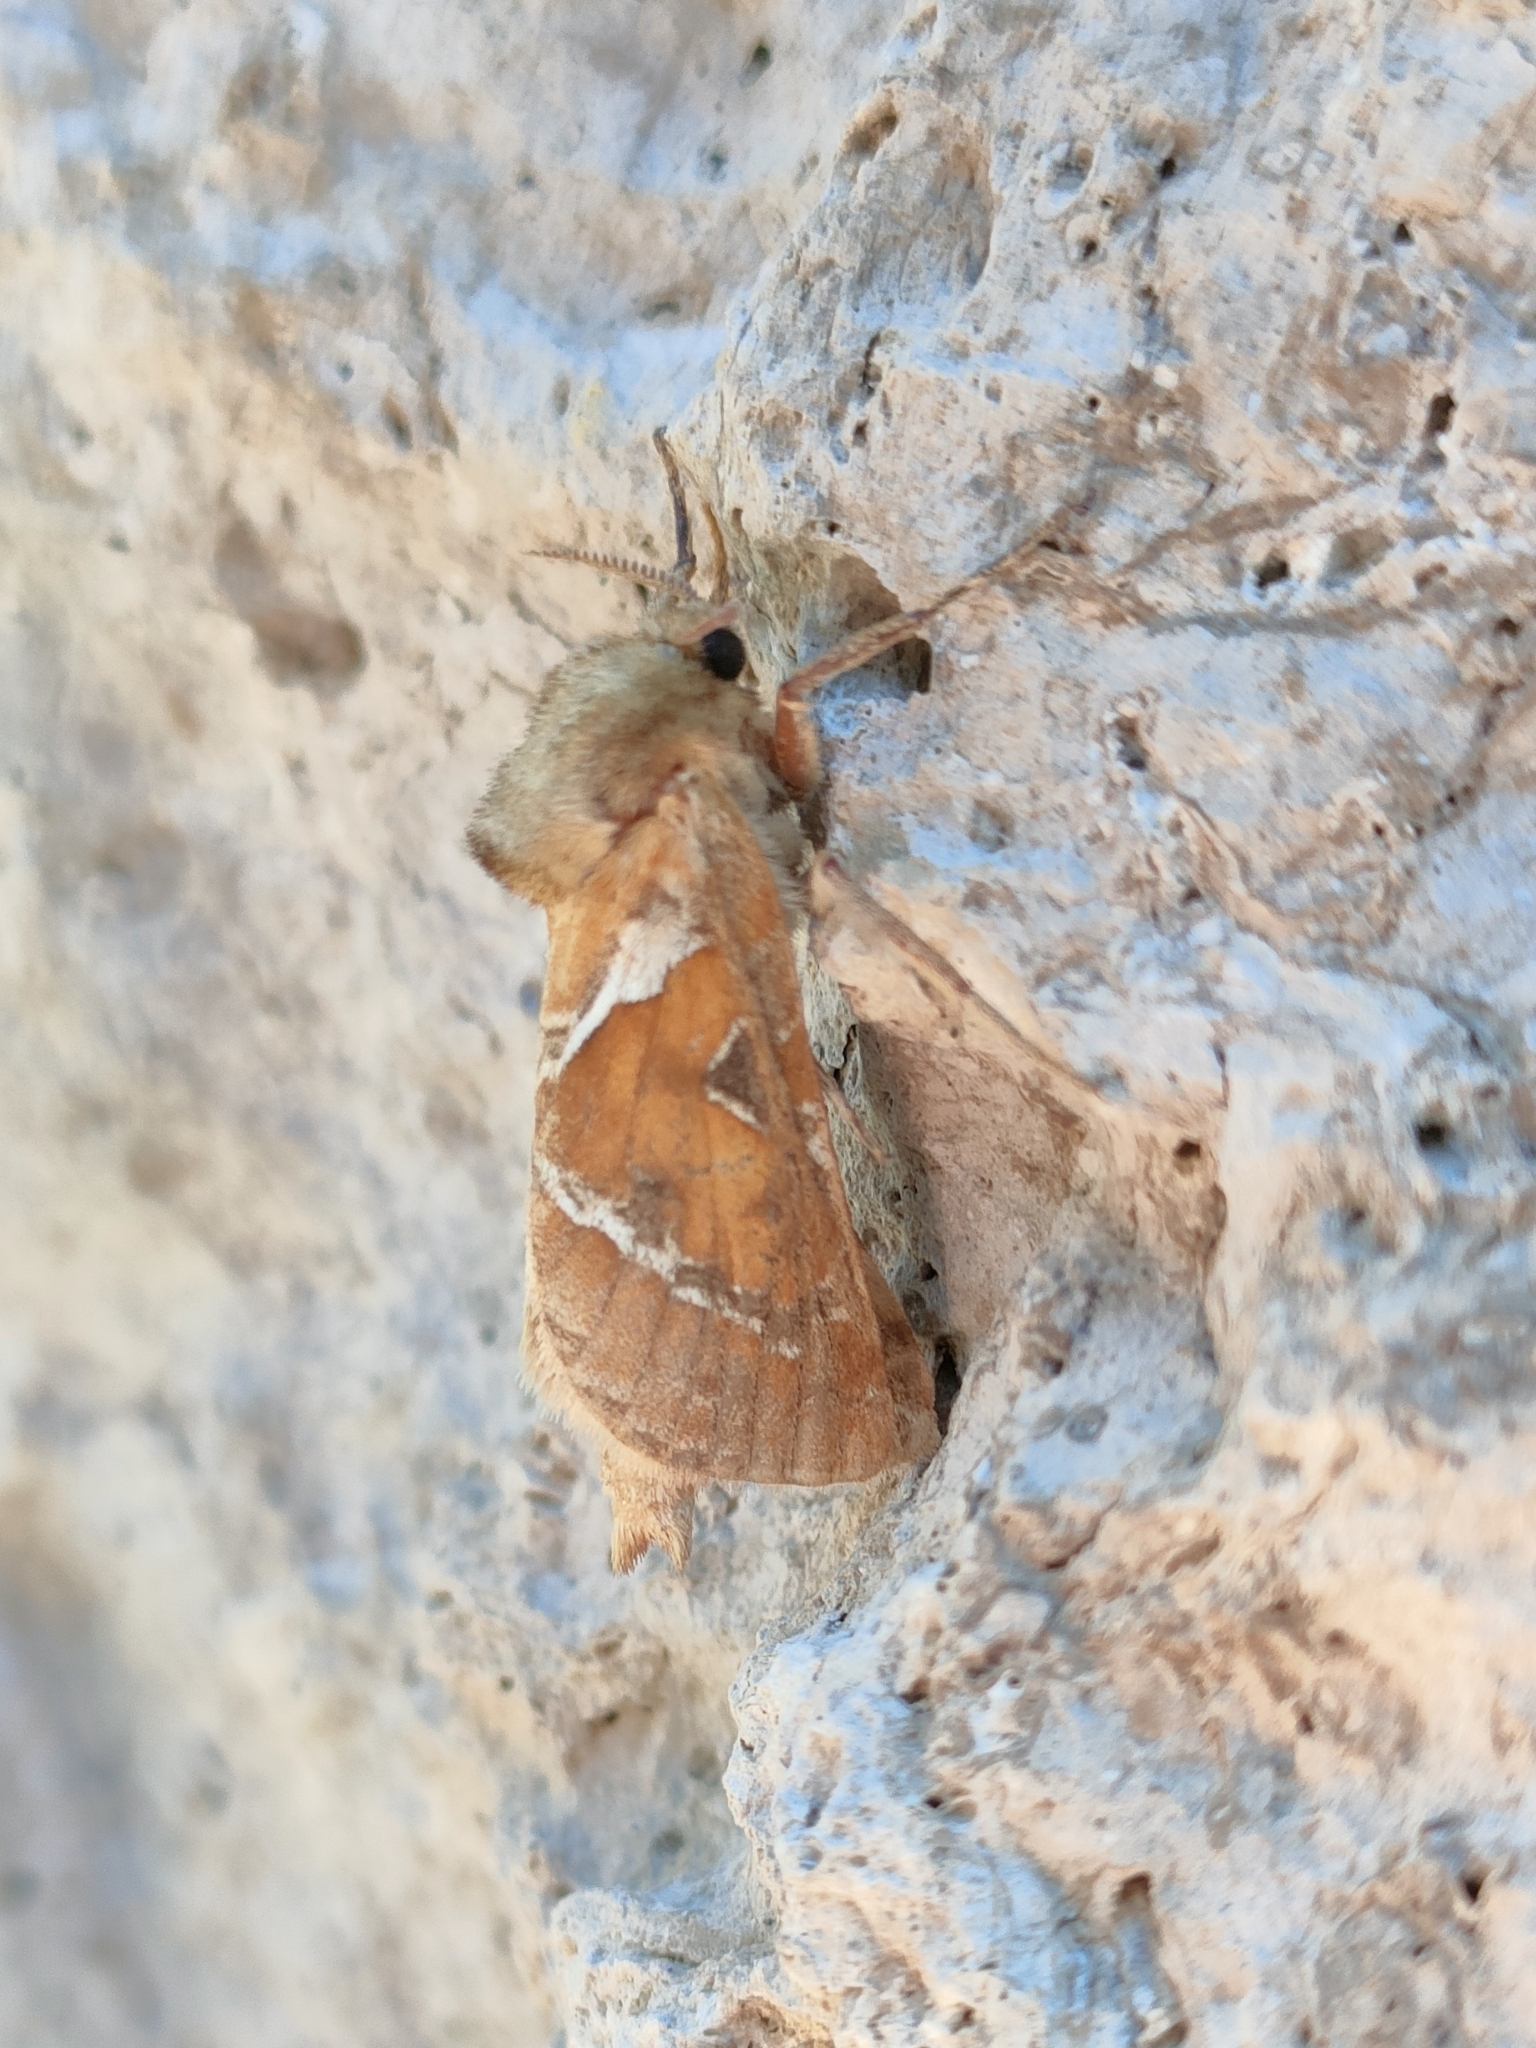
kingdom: Animalia
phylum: Arthropoda
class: Insecta
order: Lepidoptera
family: Hepialidae
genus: Triodia
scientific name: Triodia sylvina
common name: Orange swift
